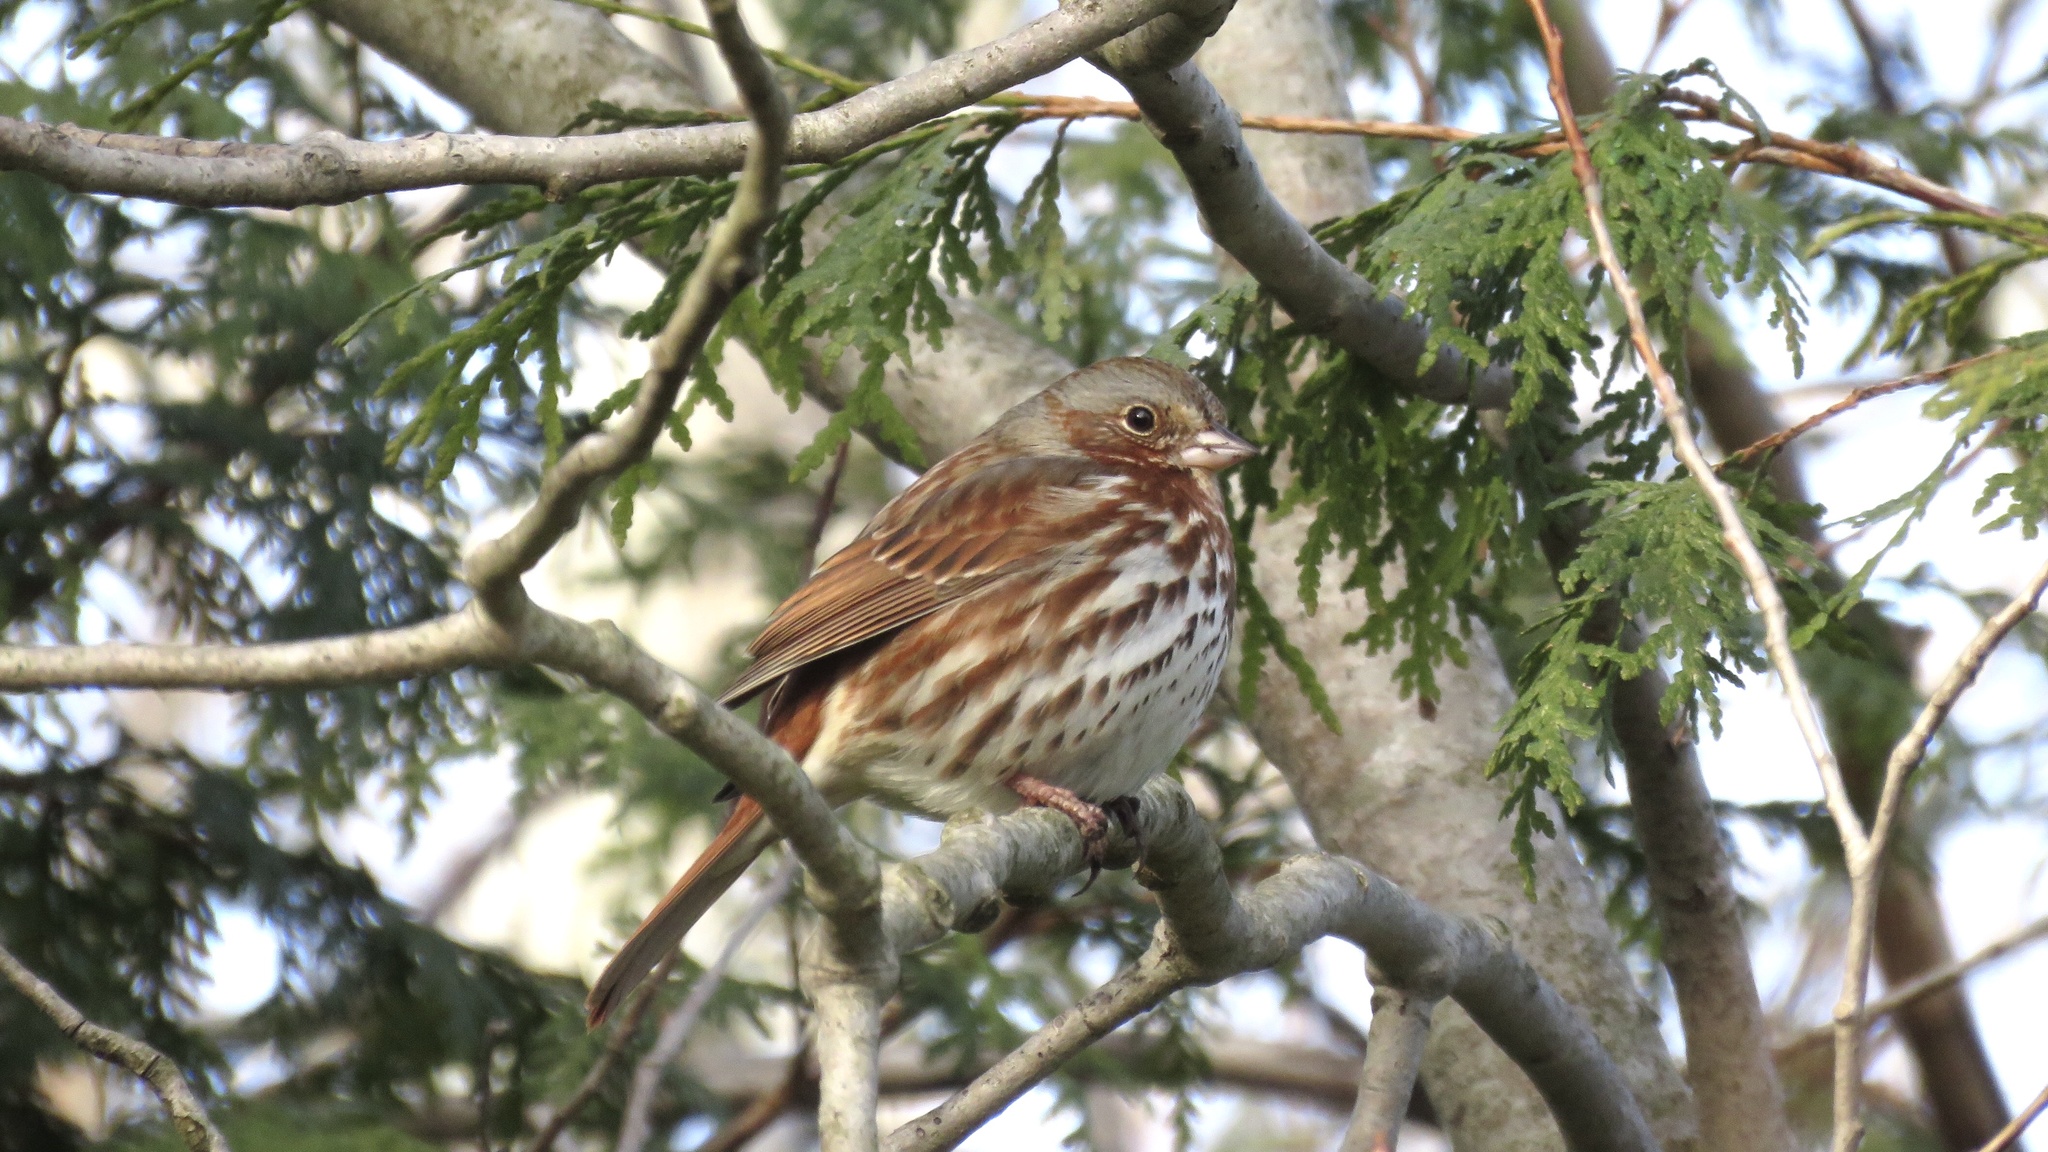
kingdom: Animalia
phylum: Chordata
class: Aves
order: Passeriformes
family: Passerellidae
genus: Passerella
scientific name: Passerella iliaca
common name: Fox sparrow
